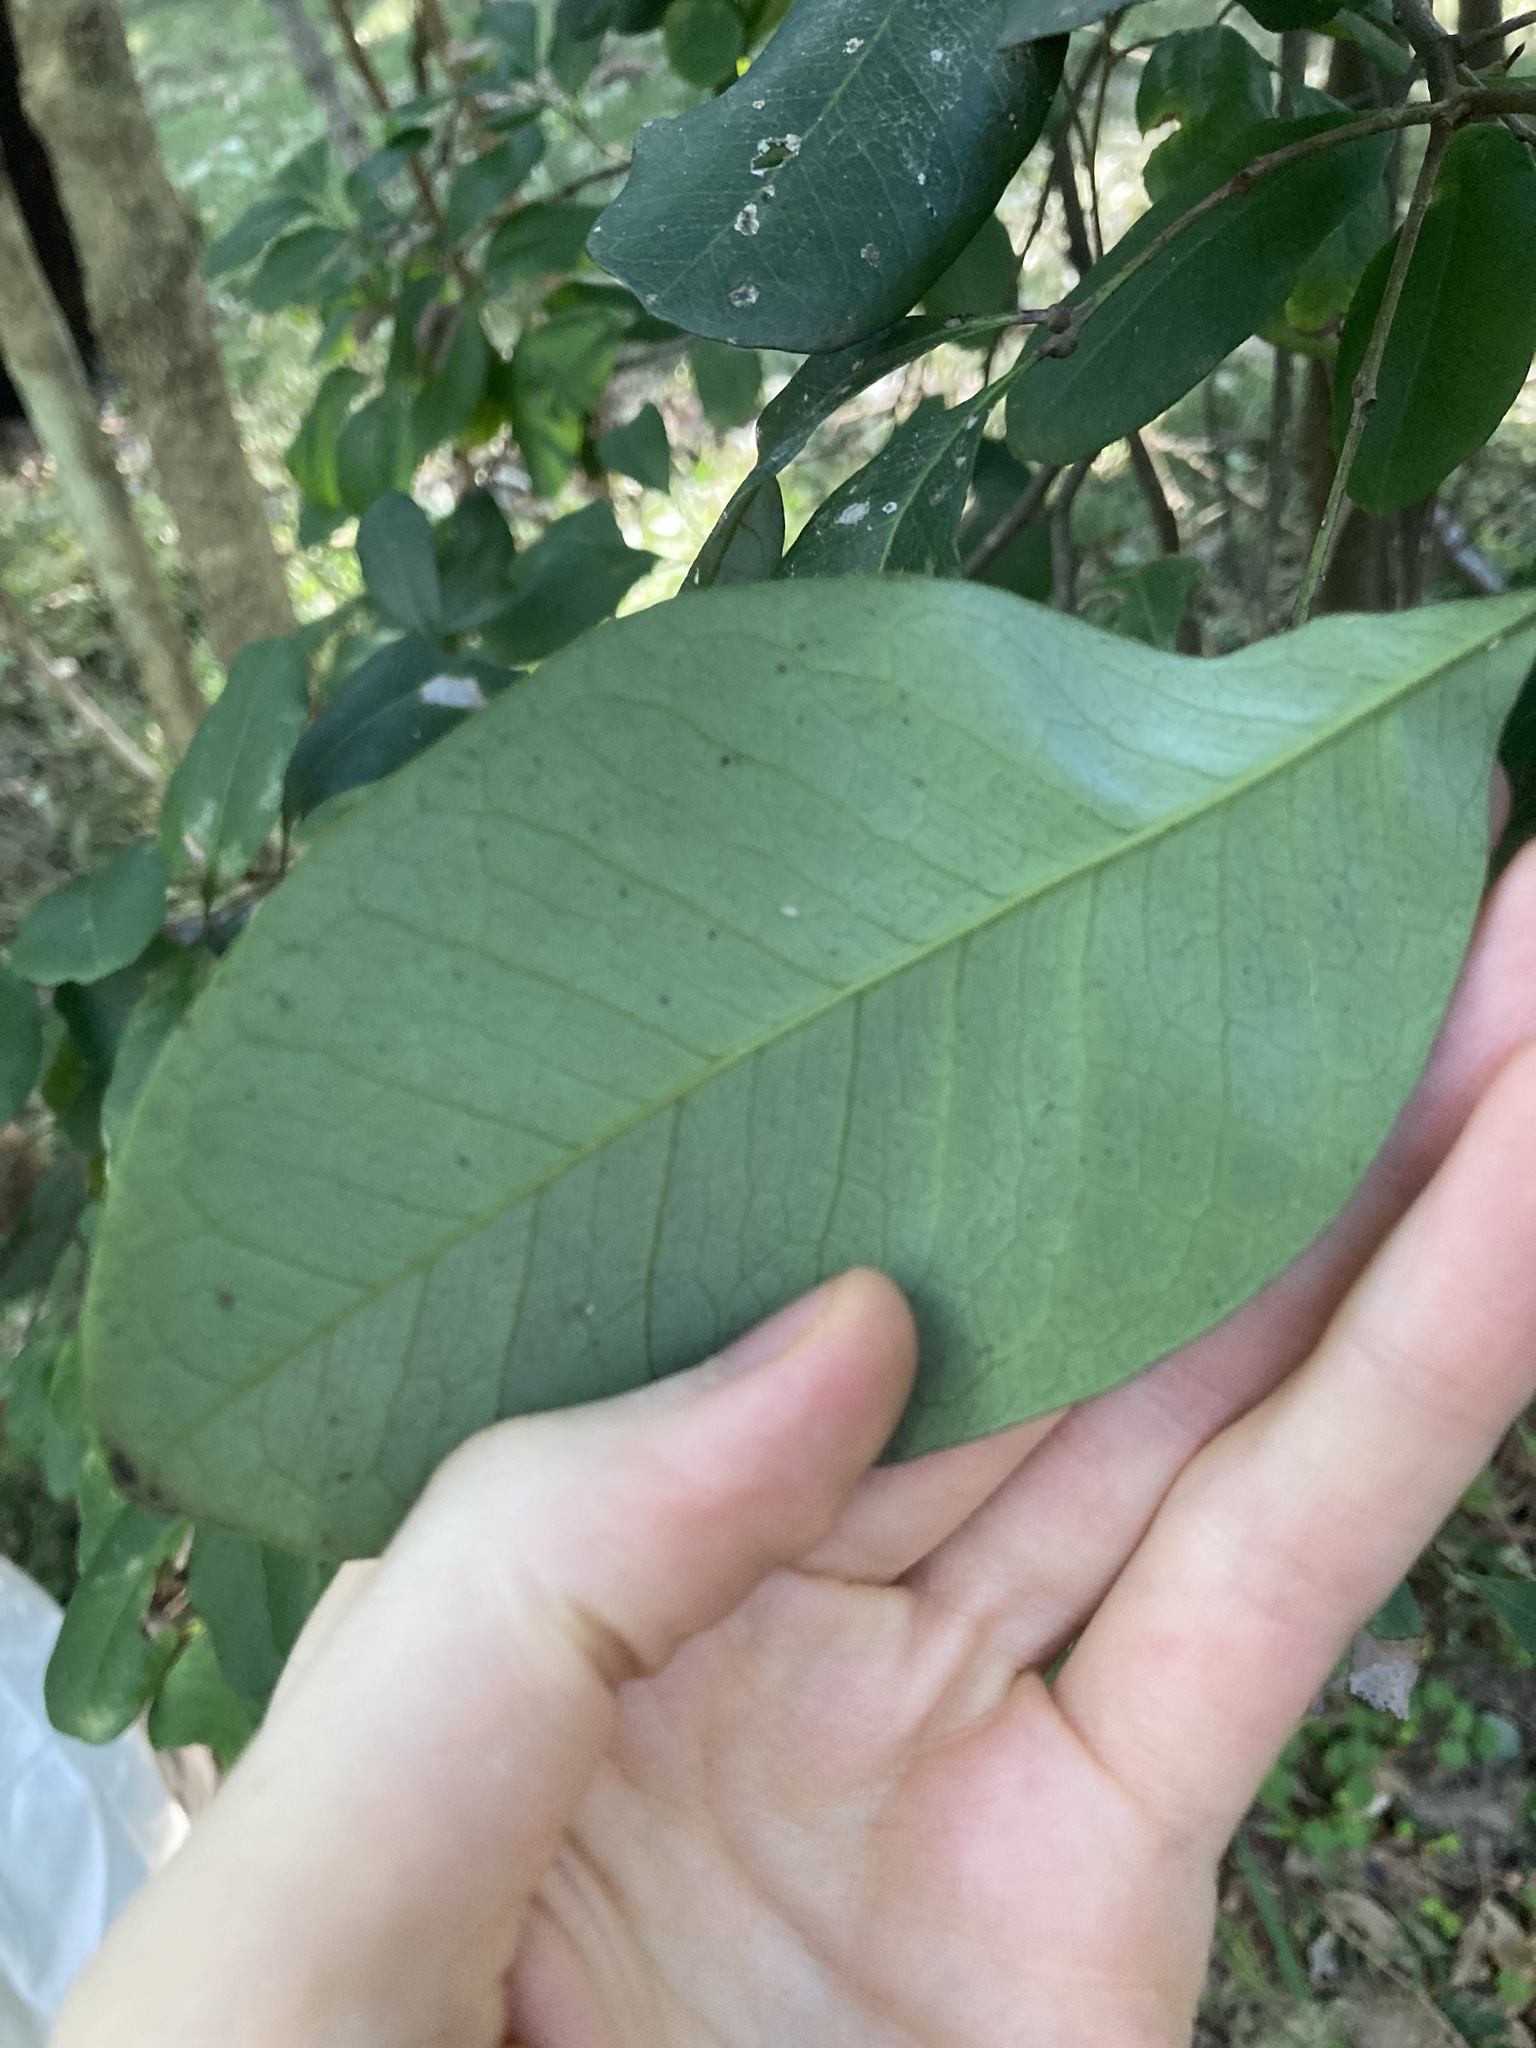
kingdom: Plantae
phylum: Tracheophyta
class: Magnoliopsida
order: Sapindales
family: Sapindaceae
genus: Guioa
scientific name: Guioa semiglauca
